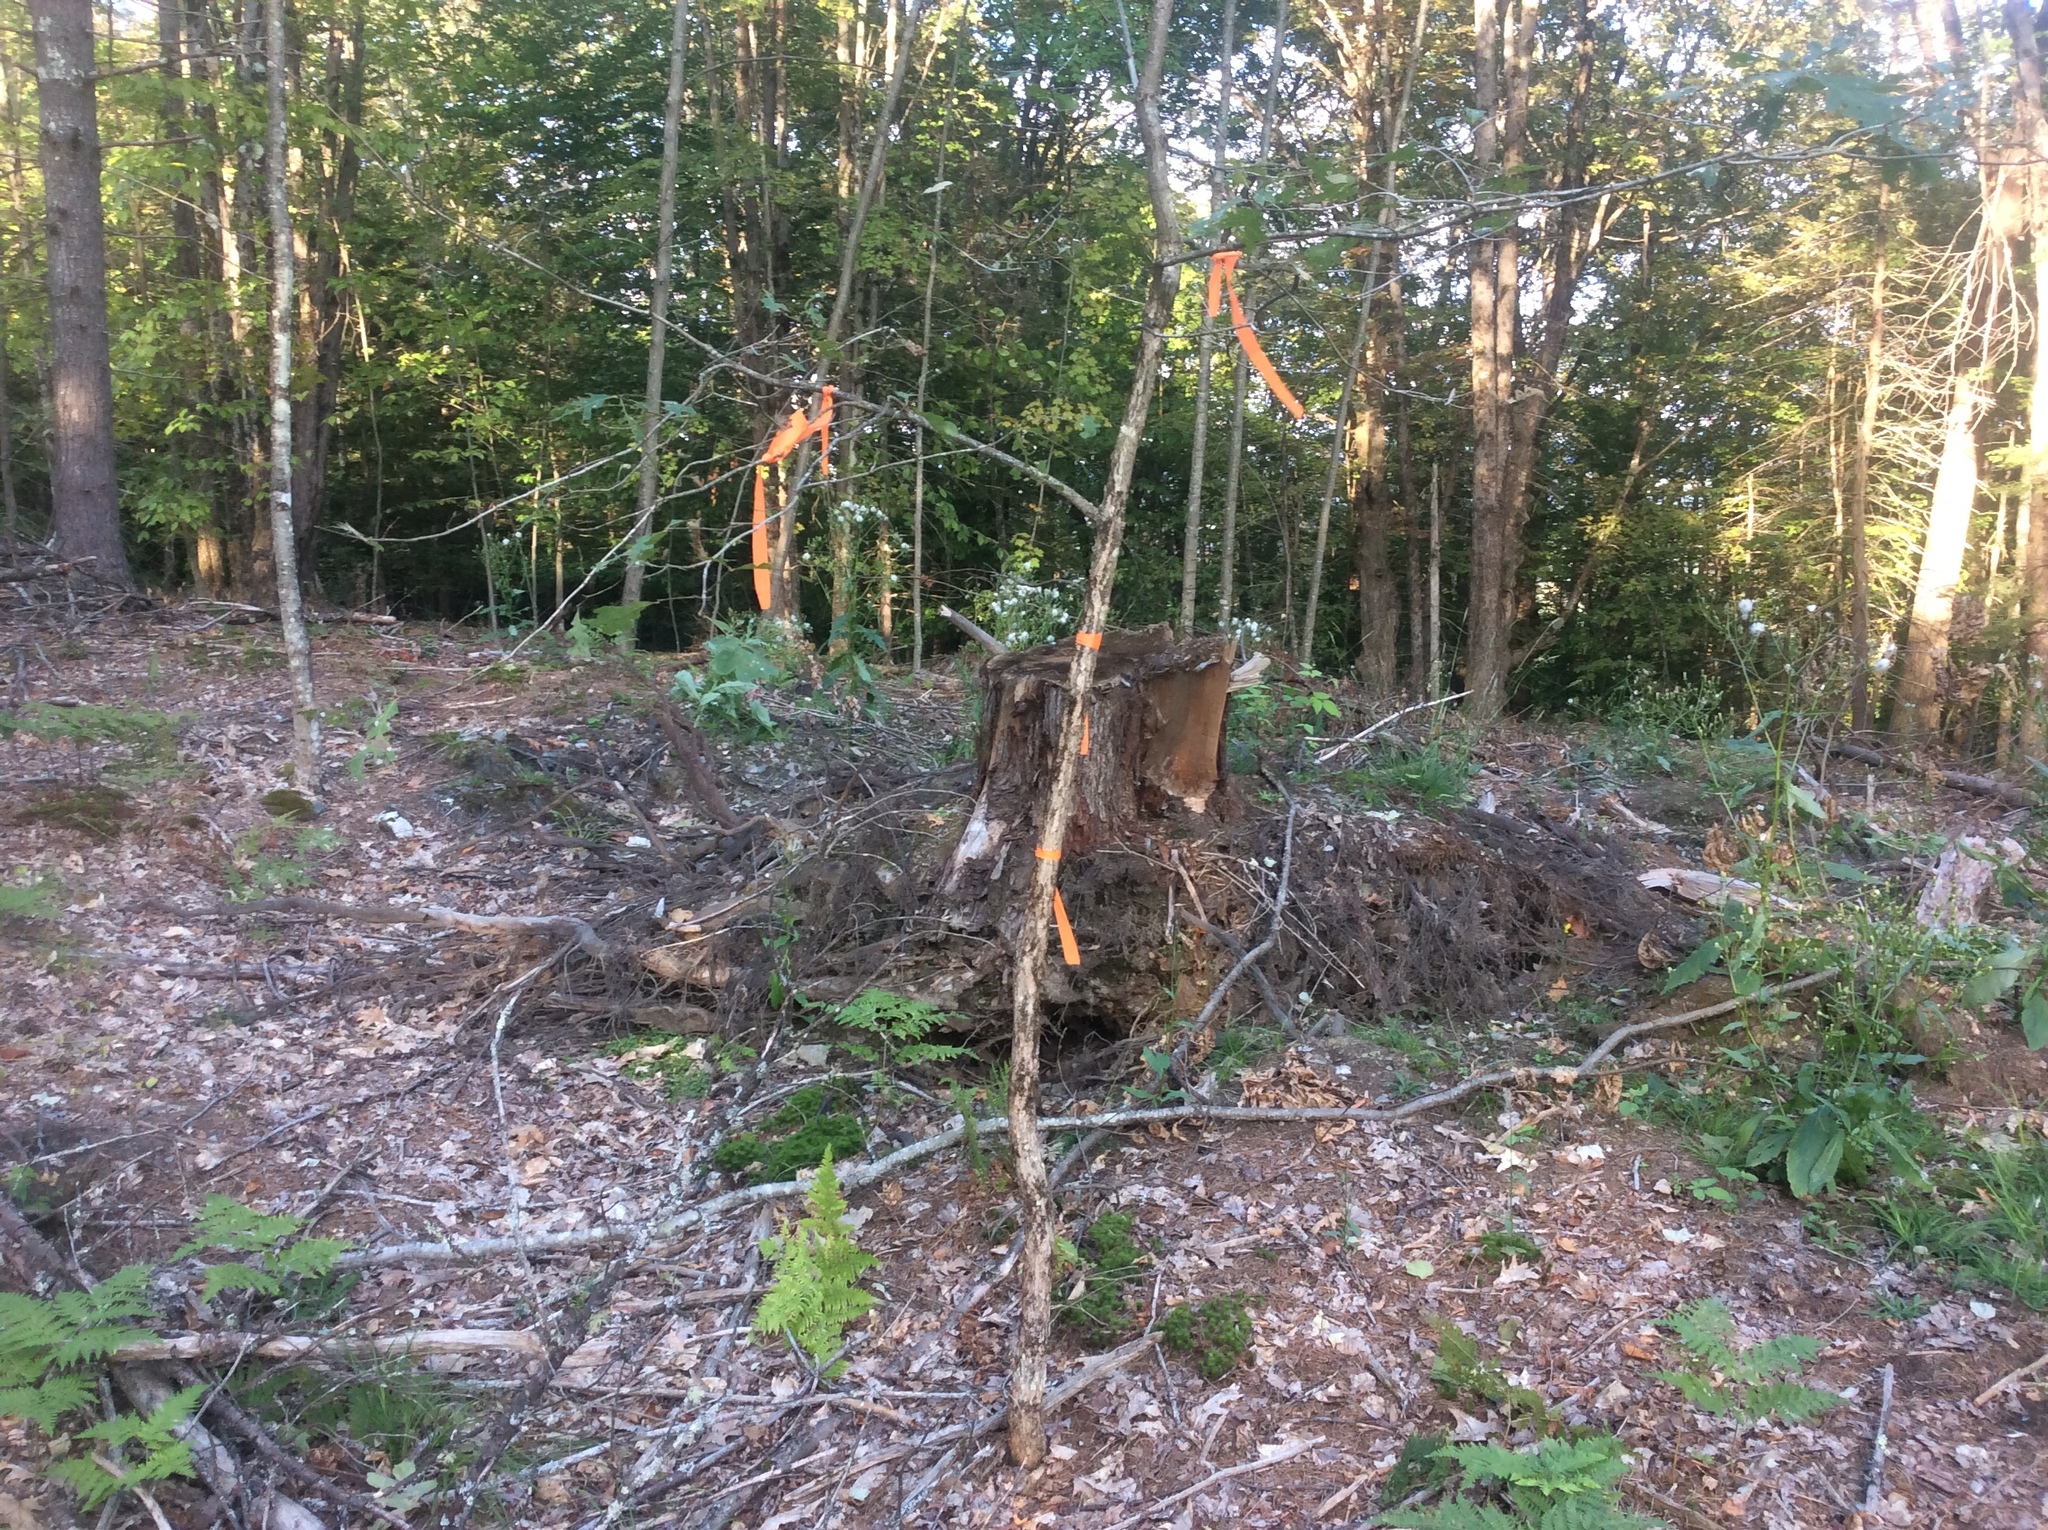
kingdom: Plantae
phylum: Tracheophyta
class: Magnoliopsida
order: Fagales
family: Fagaceae
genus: Quercus
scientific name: Quercus alba
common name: White oak
